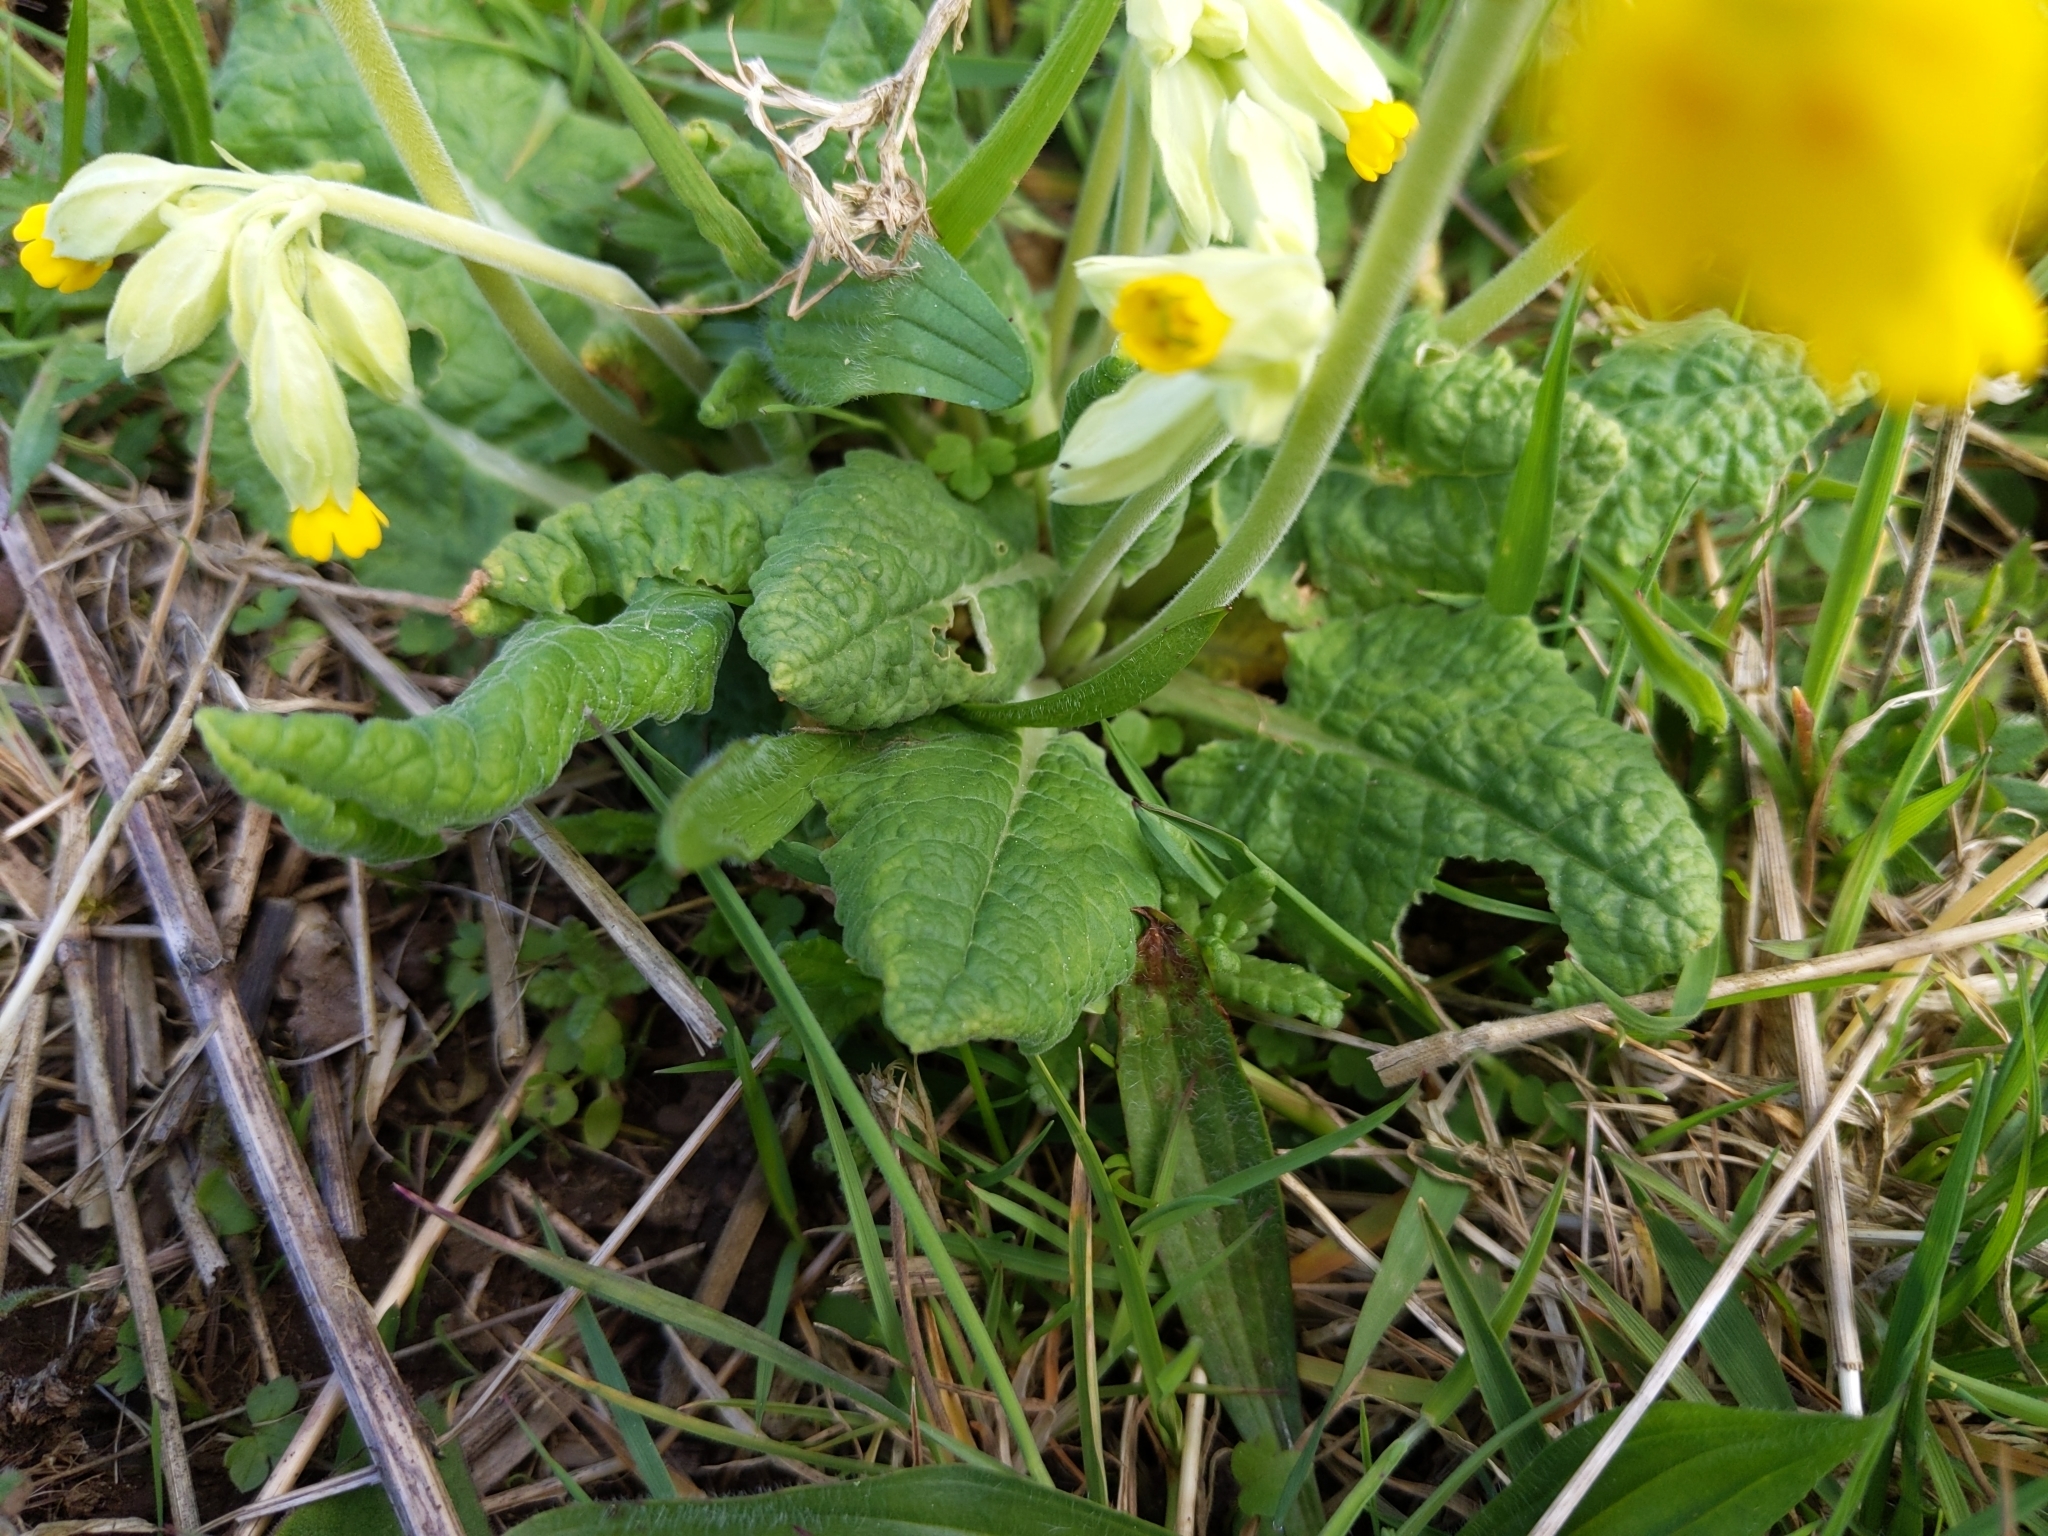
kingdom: Plantae
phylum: Tracheophyta
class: Magnoliopsida
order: Ericales
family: Primulaceae
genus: Primula
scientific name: Primula veris
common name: Cowslip
